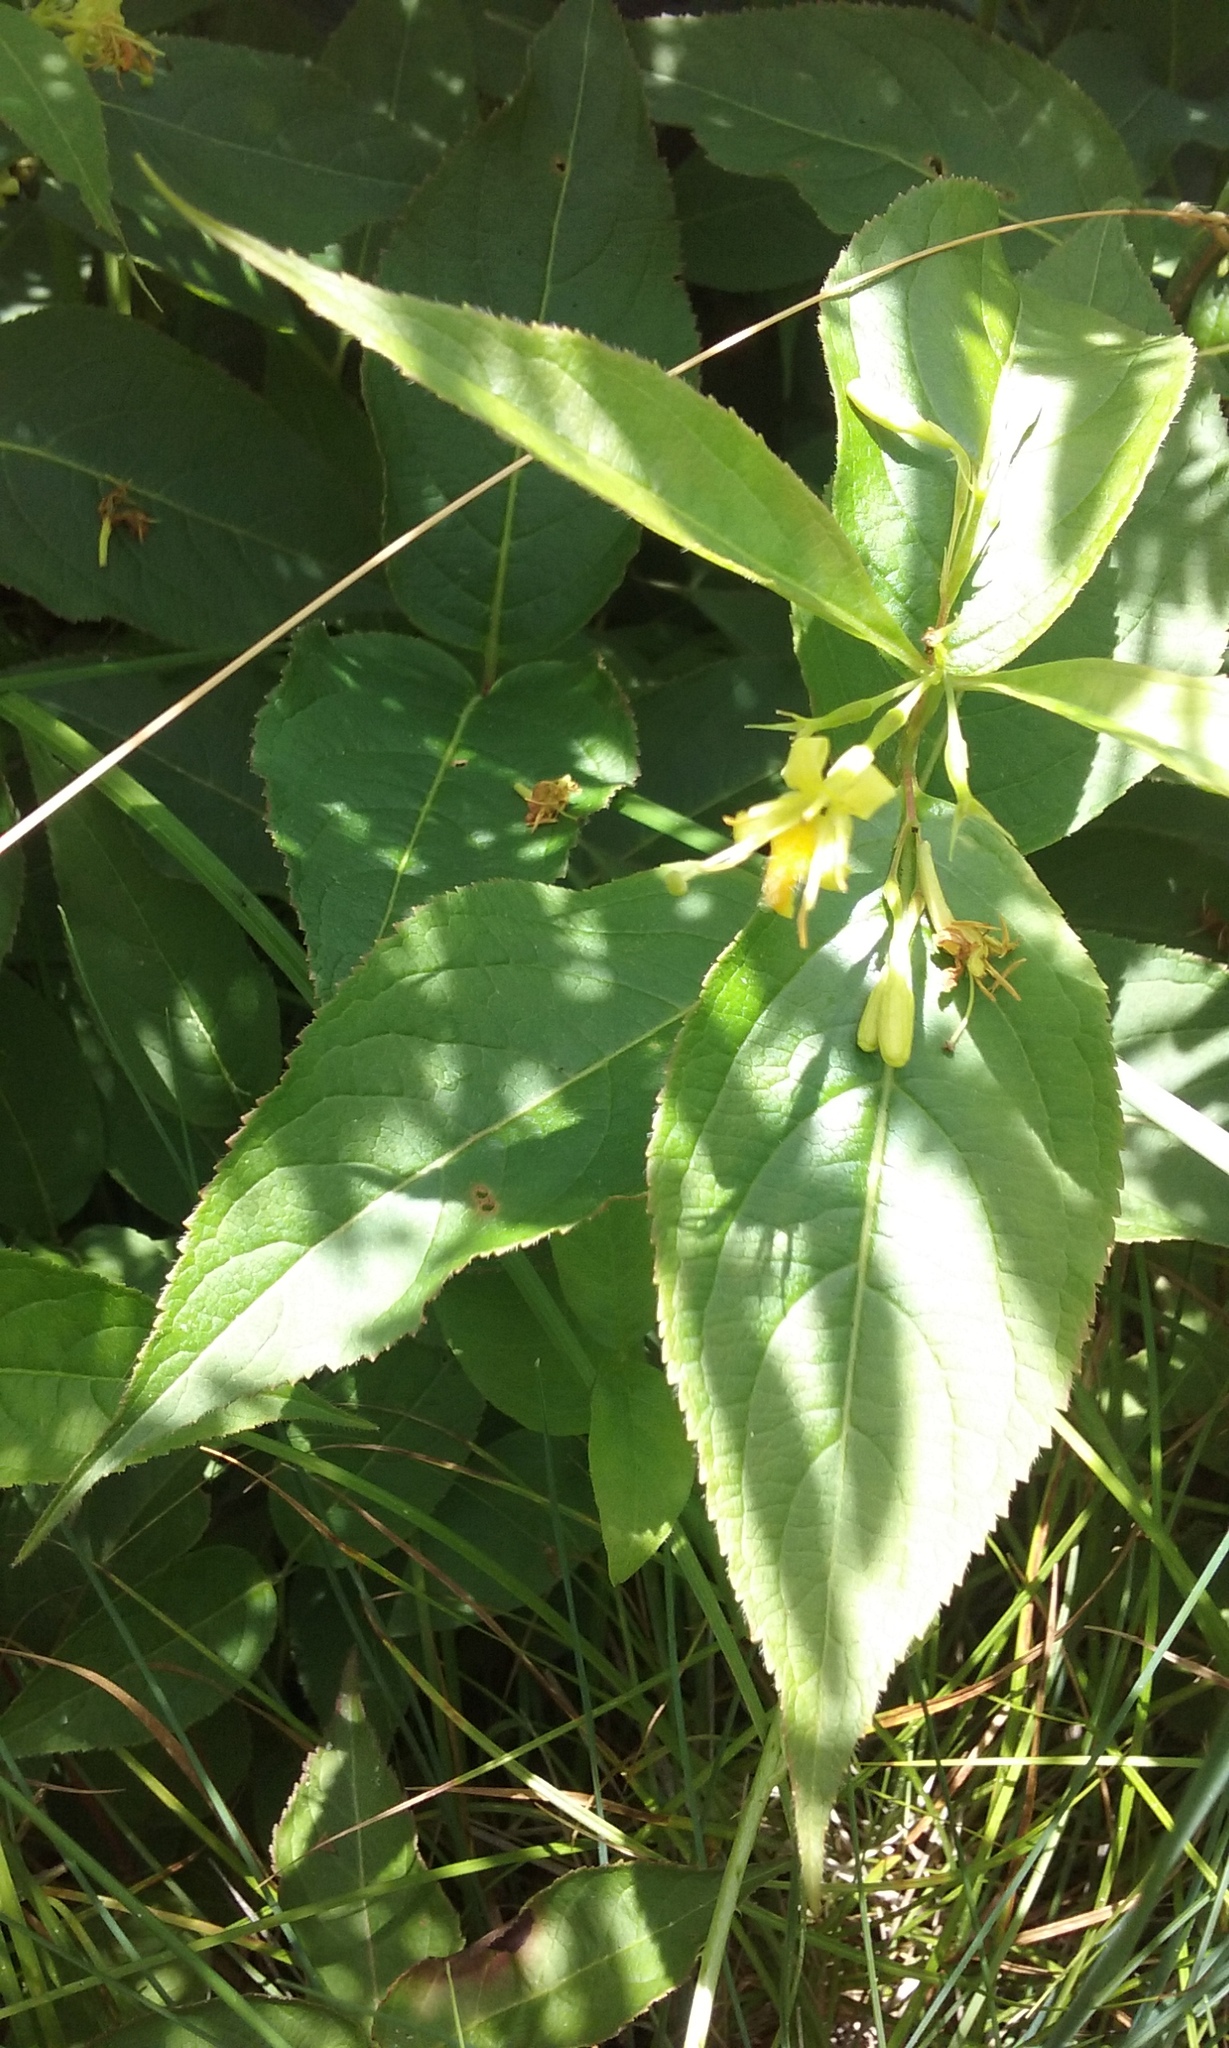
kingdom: Plantae
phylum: Tracheophyta
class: Magnoliopsida
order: Dipsacales
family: Caprifoliaceae
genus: Diervilla
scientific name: Diervilla lonicera
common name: Bush-honeysuckle
